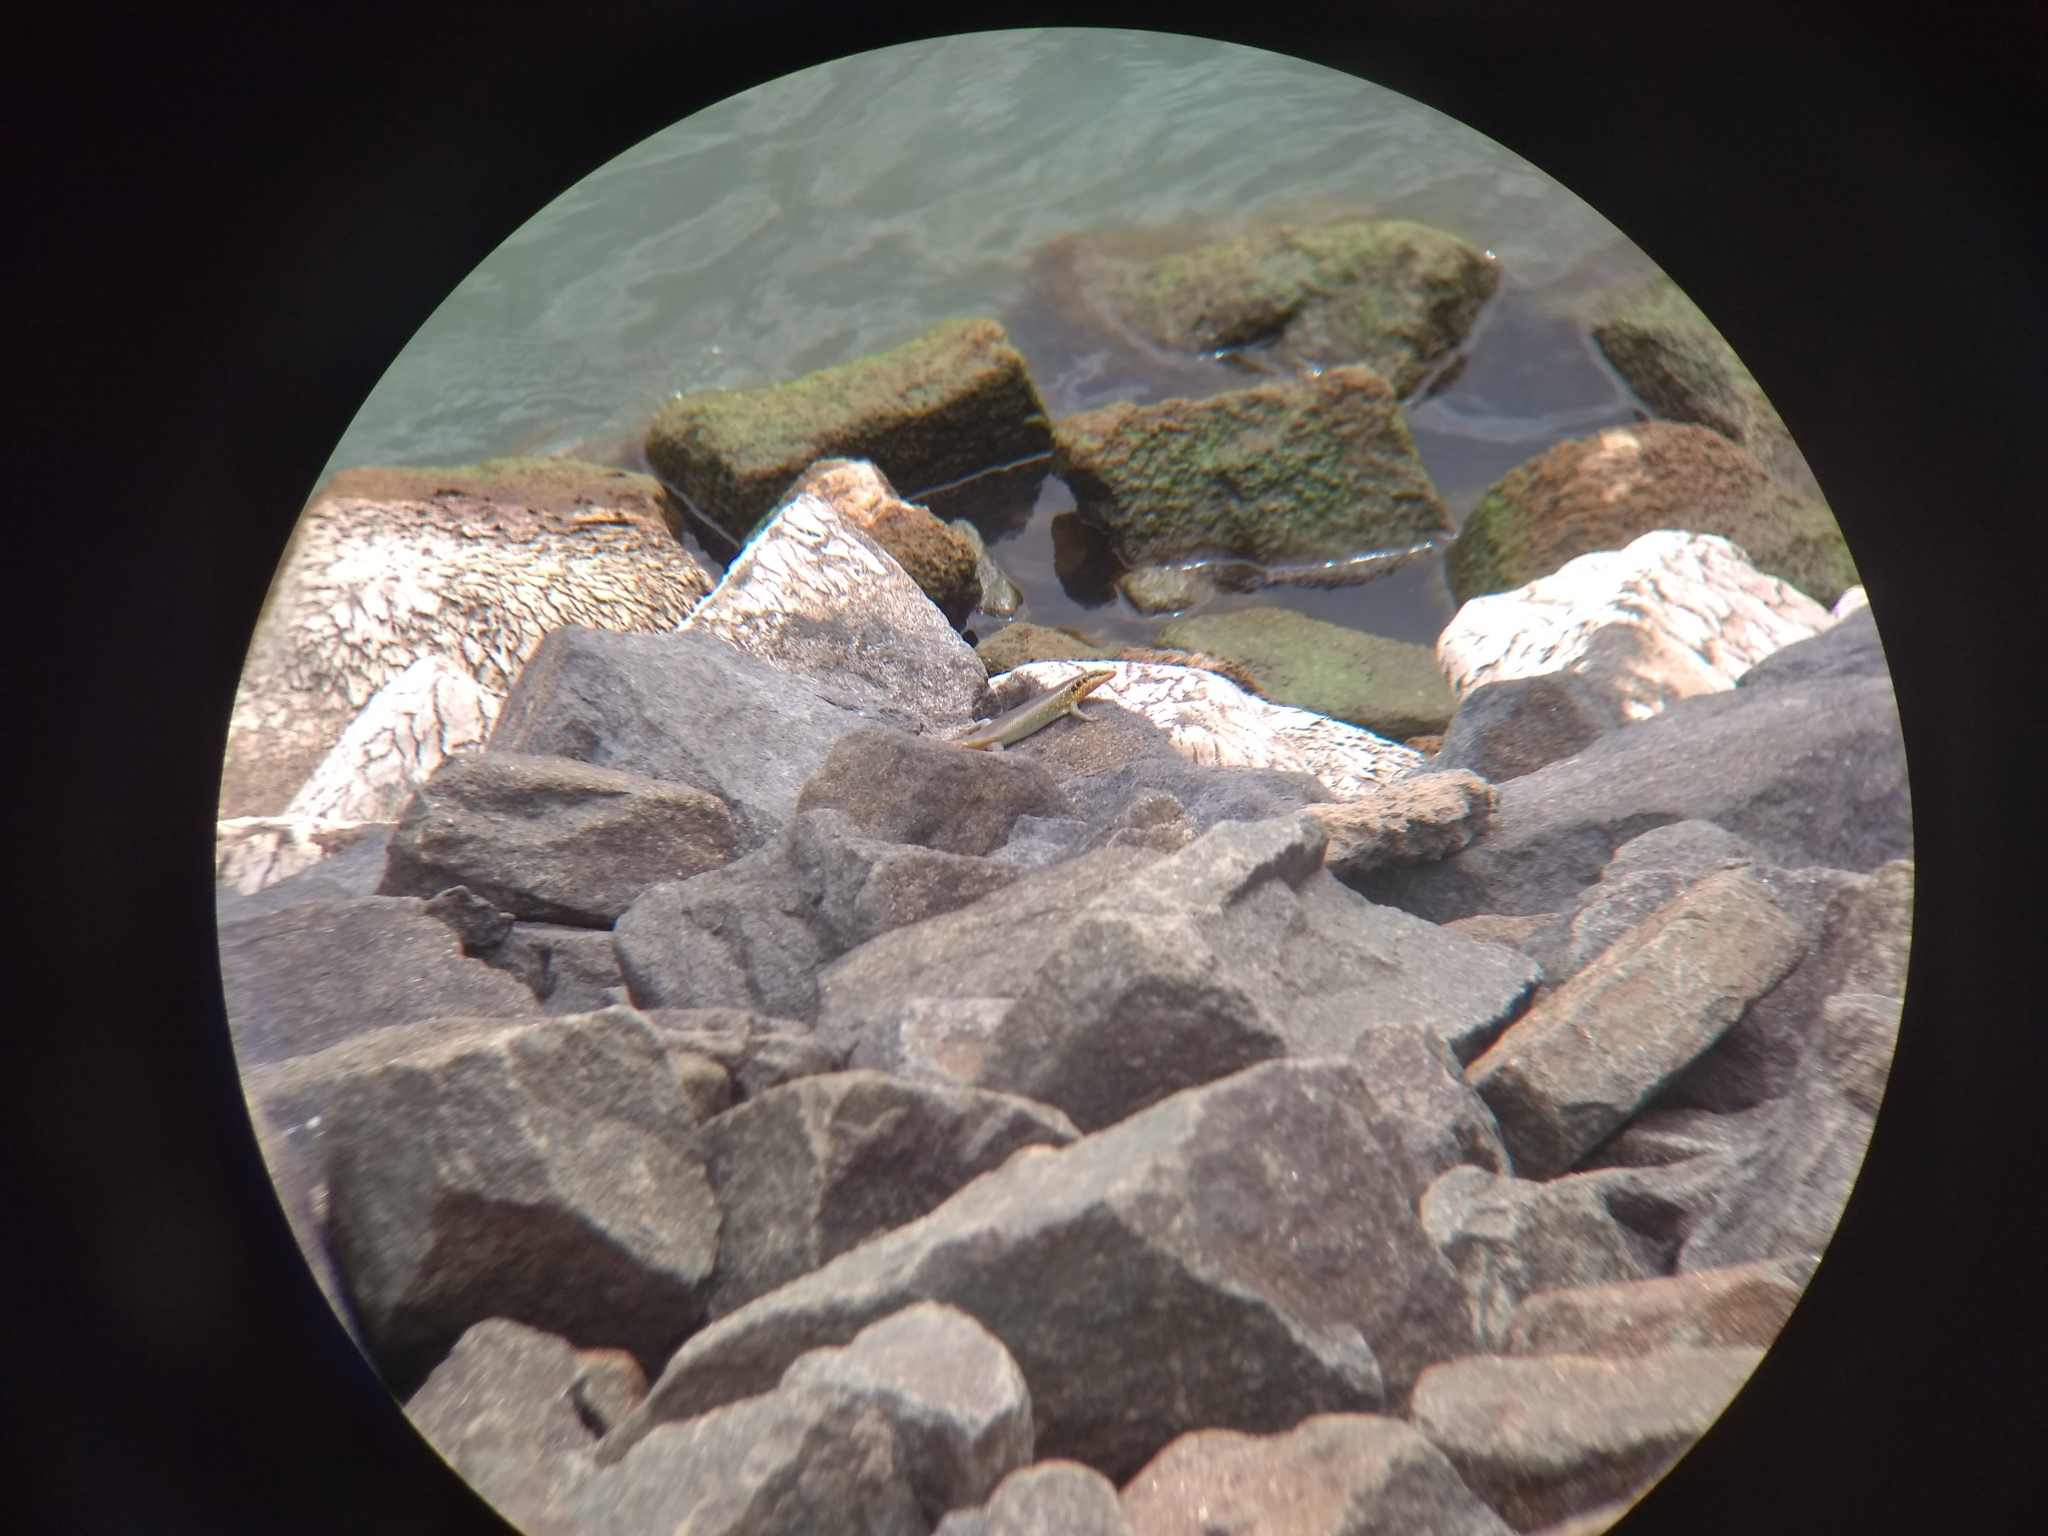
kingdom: Animalia
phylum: Chordata
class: Squamata
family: Scincidae
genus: Trachylepis
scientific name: Trachylepis margaritifera
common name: Rainbow skink
